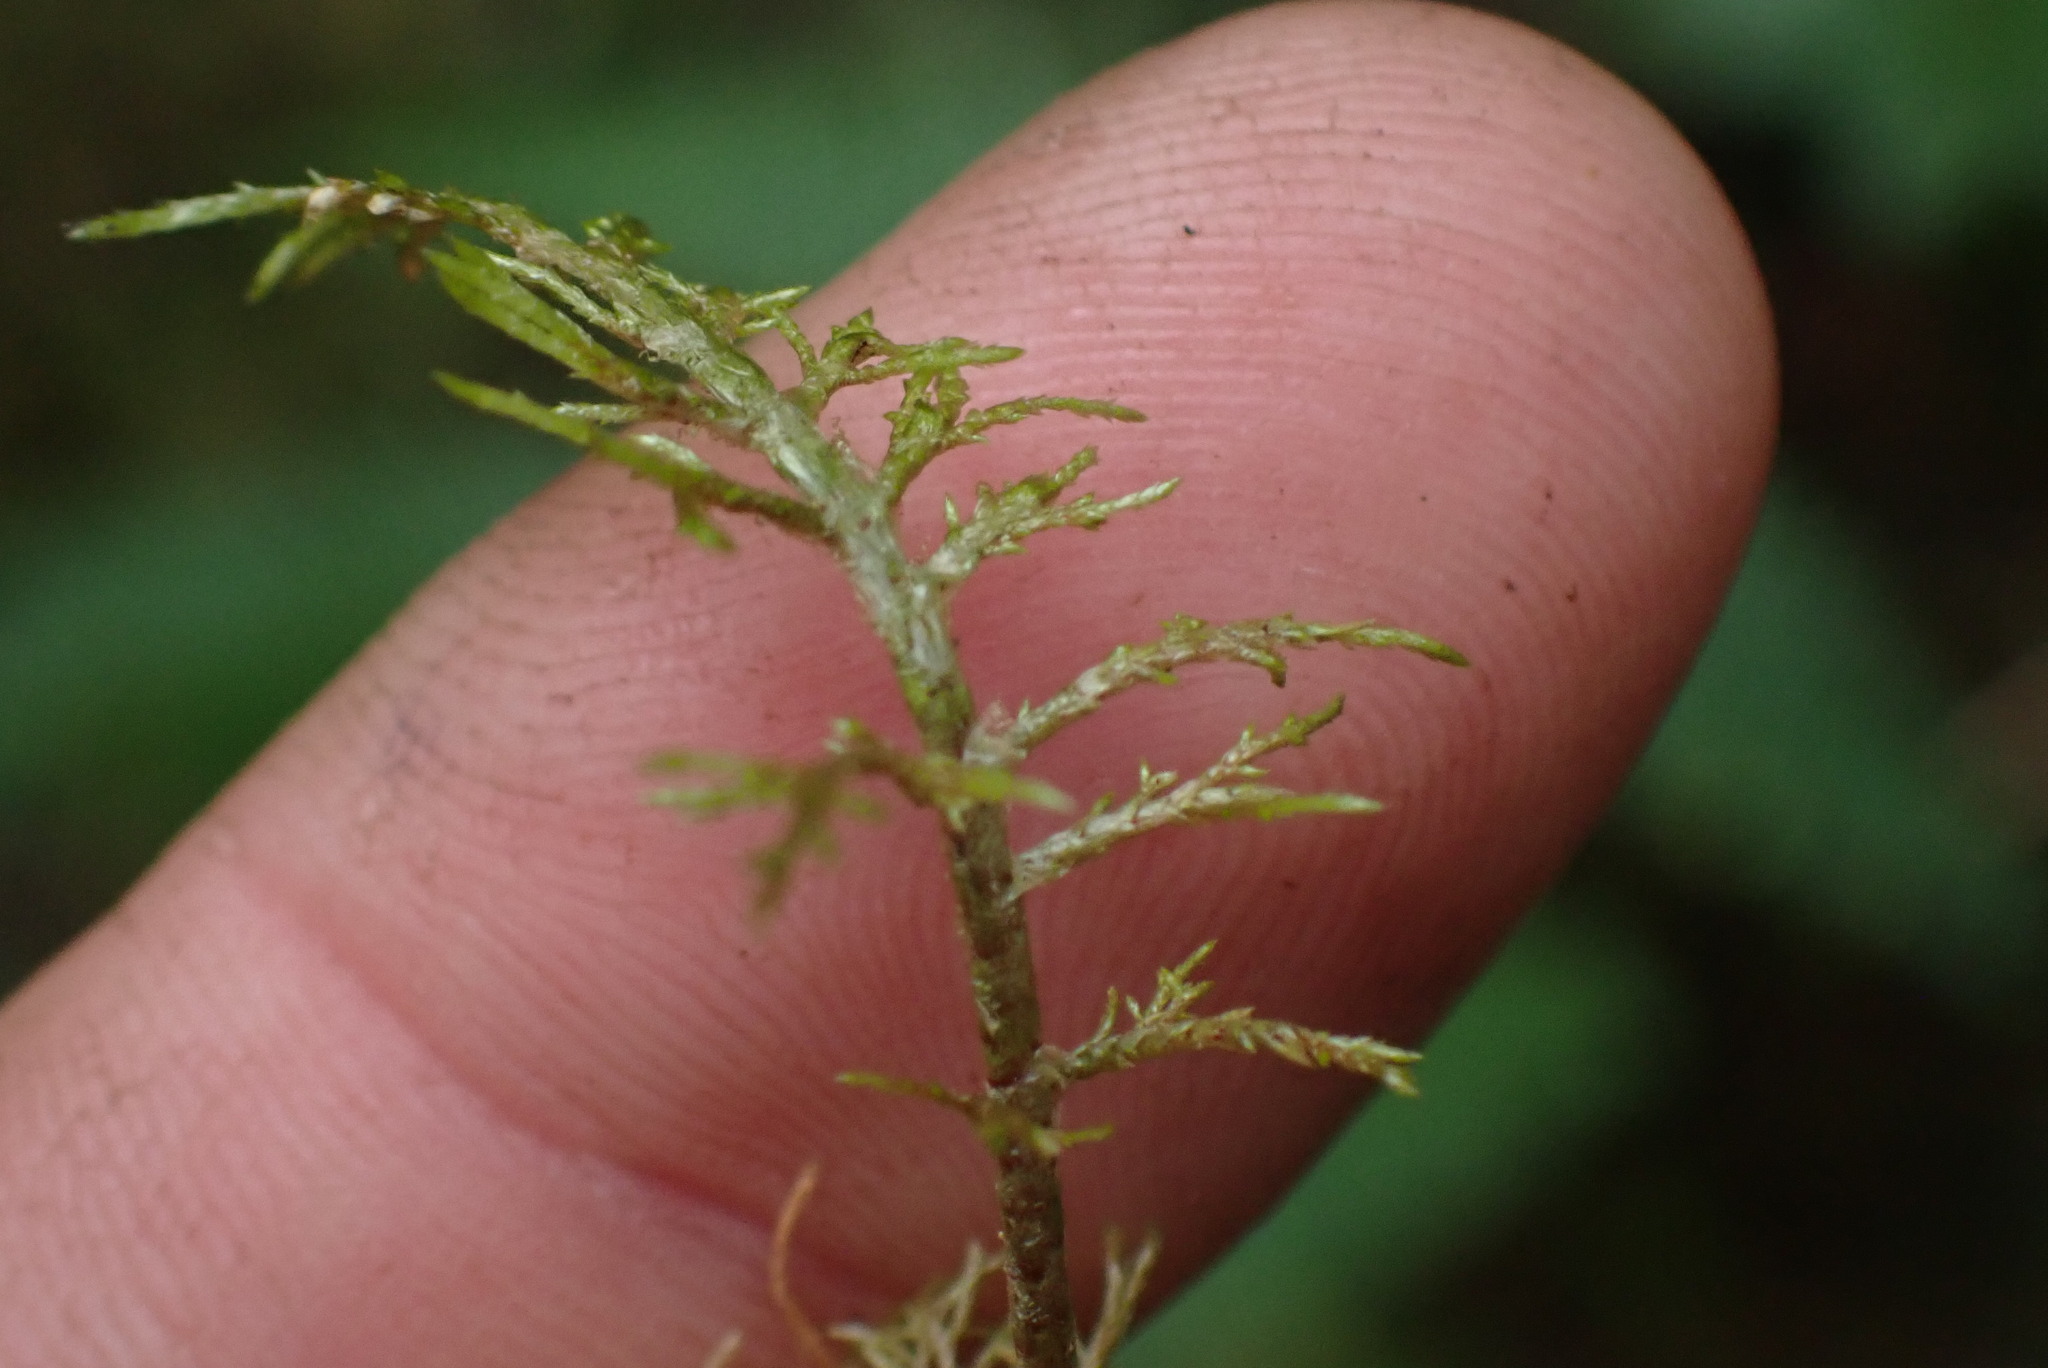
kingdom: Plantae
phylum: Bryophyta
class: Bryopsida
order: Hypnales
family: Hylocomiaceae
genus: Hylocomium
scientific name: Hylocomium splendens
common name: Stairstep moss
